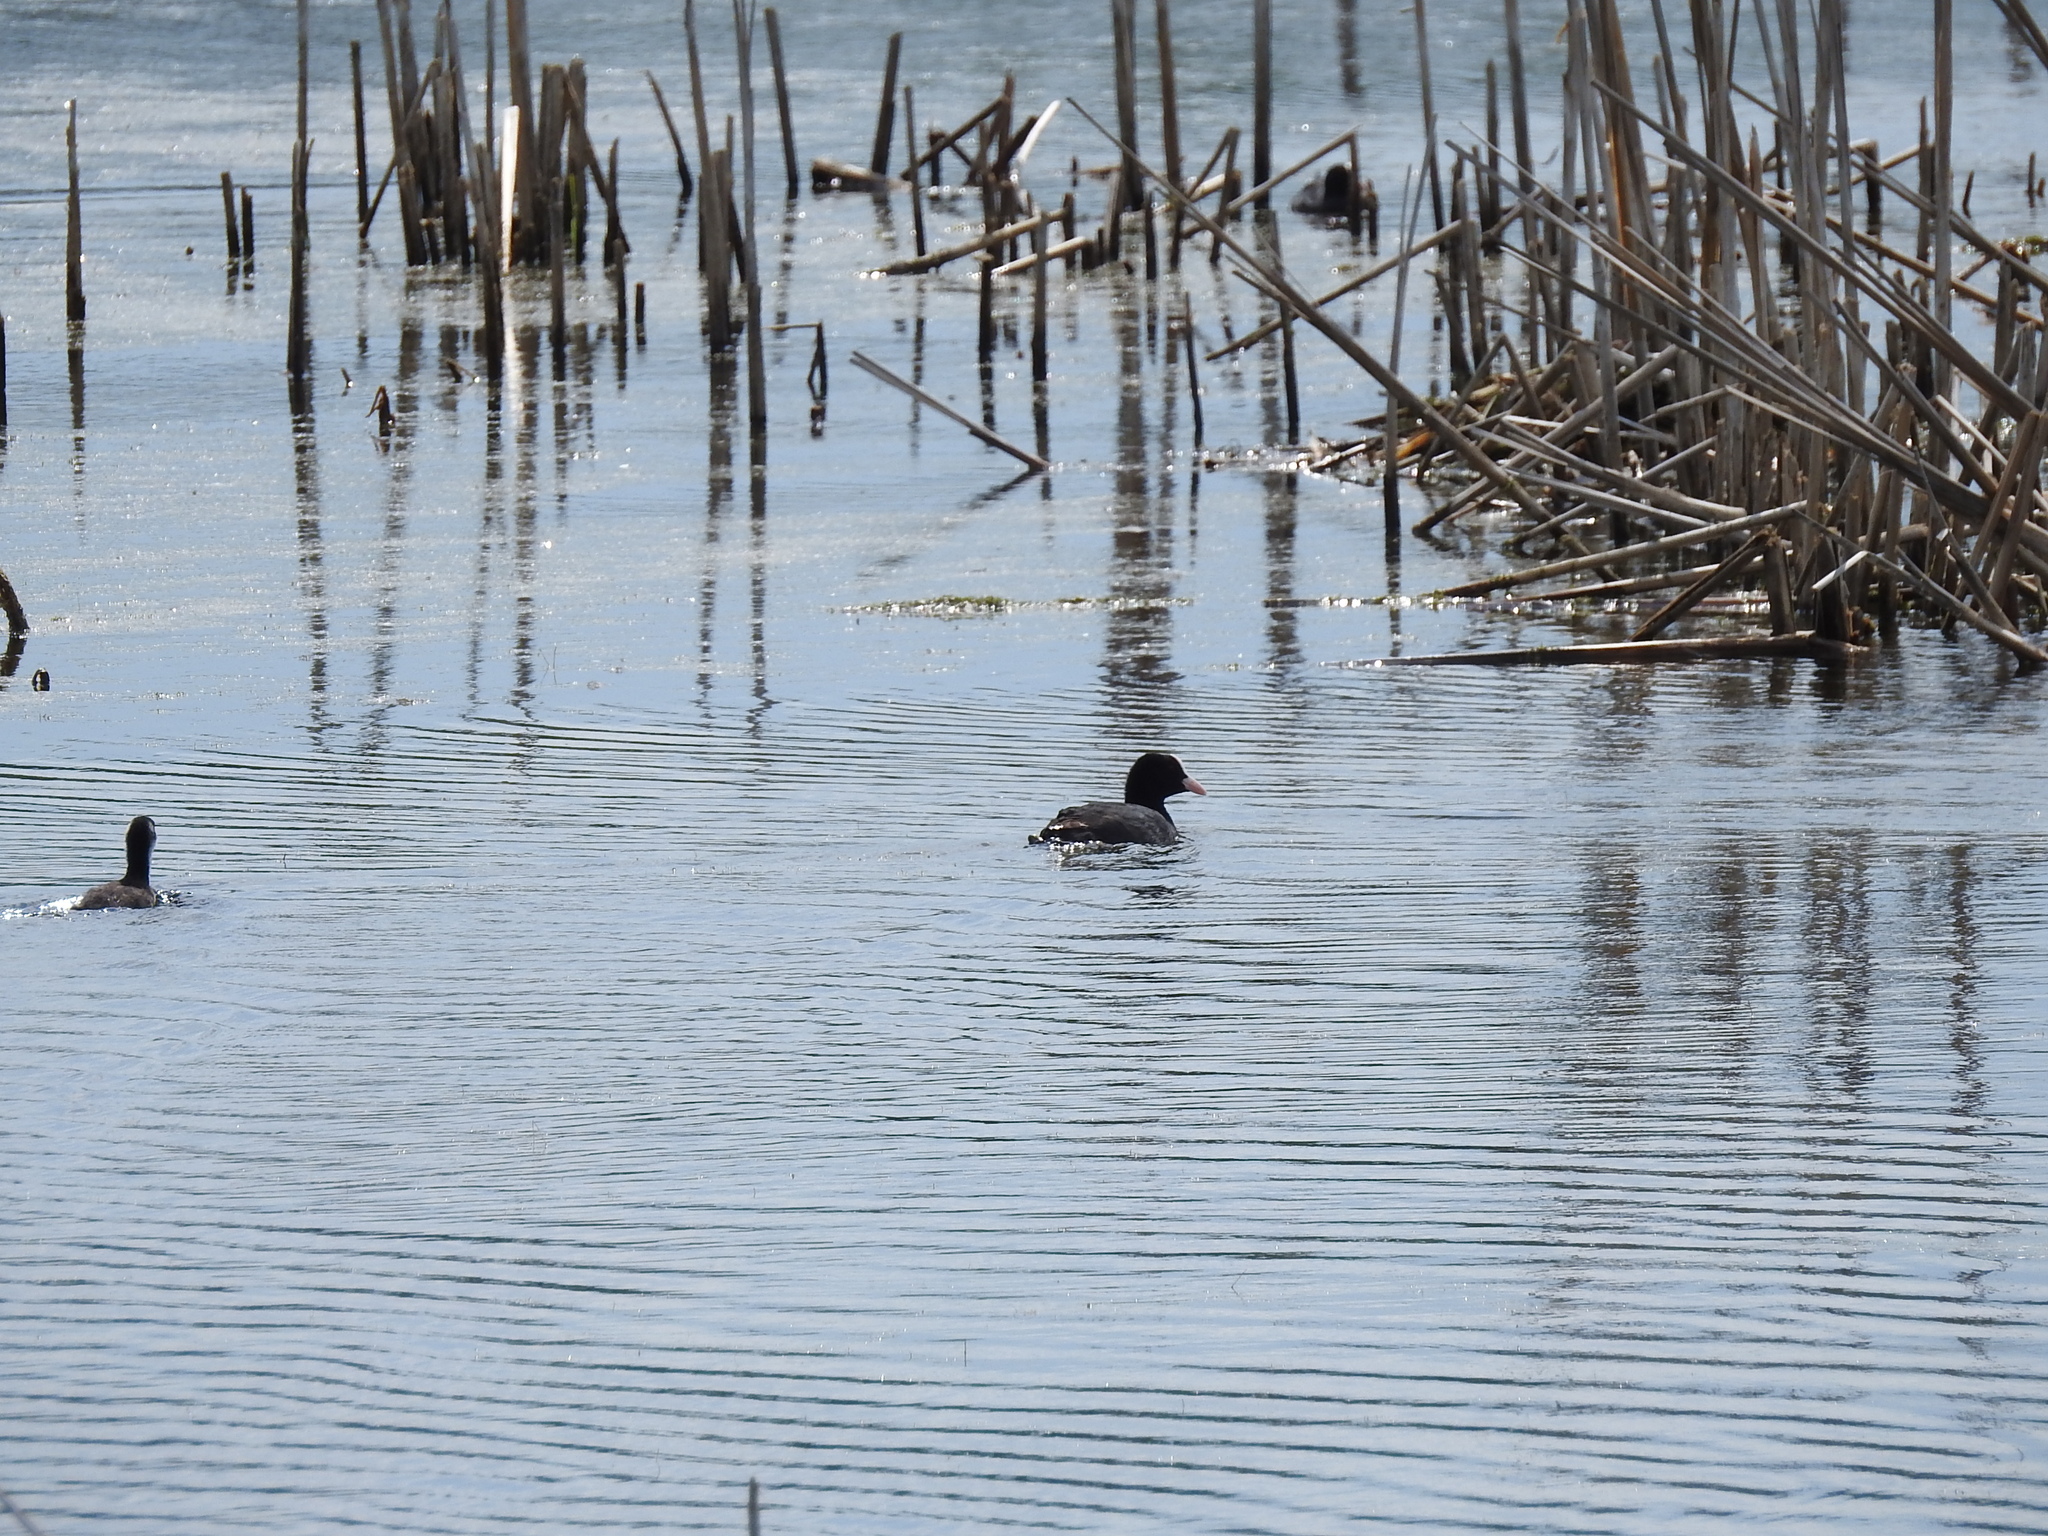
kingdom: Animalia
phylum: Chordata
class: Aves
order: Gruiformes
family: Rallidae
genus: Fulica
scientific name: Fulica atra
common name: Eurasian coot
